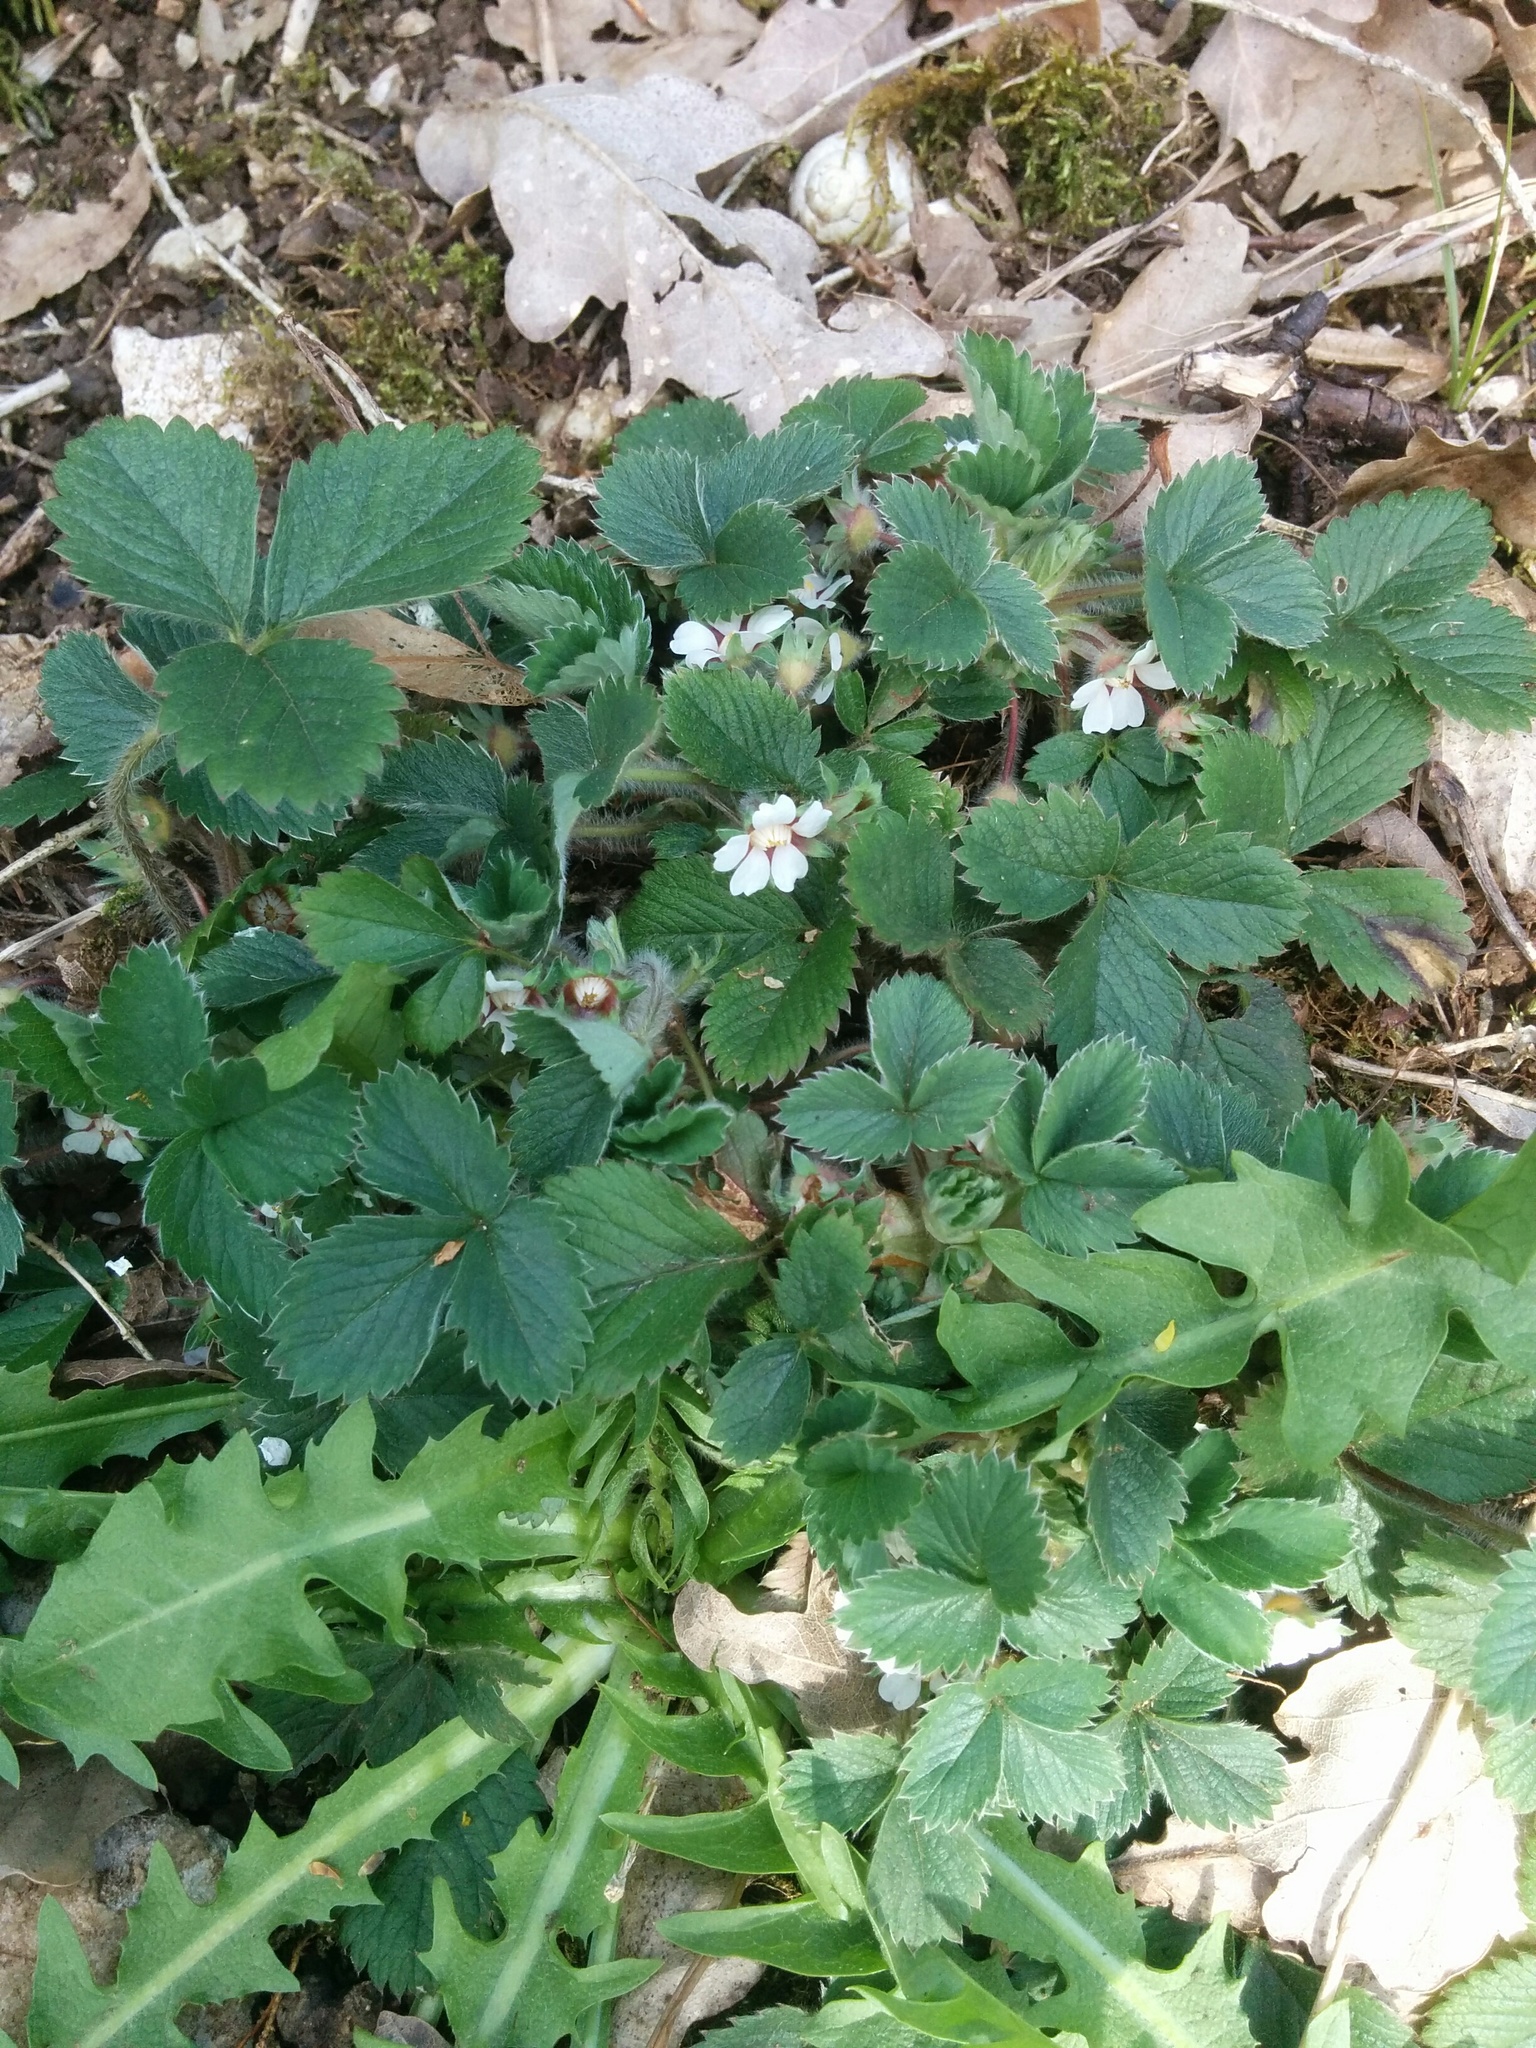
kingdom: Plantae
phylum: Tracheophyta
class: Magnoliopsida
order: Rosales
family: Rosaceae
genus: Potentilla
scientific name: Potentilla micrantha
